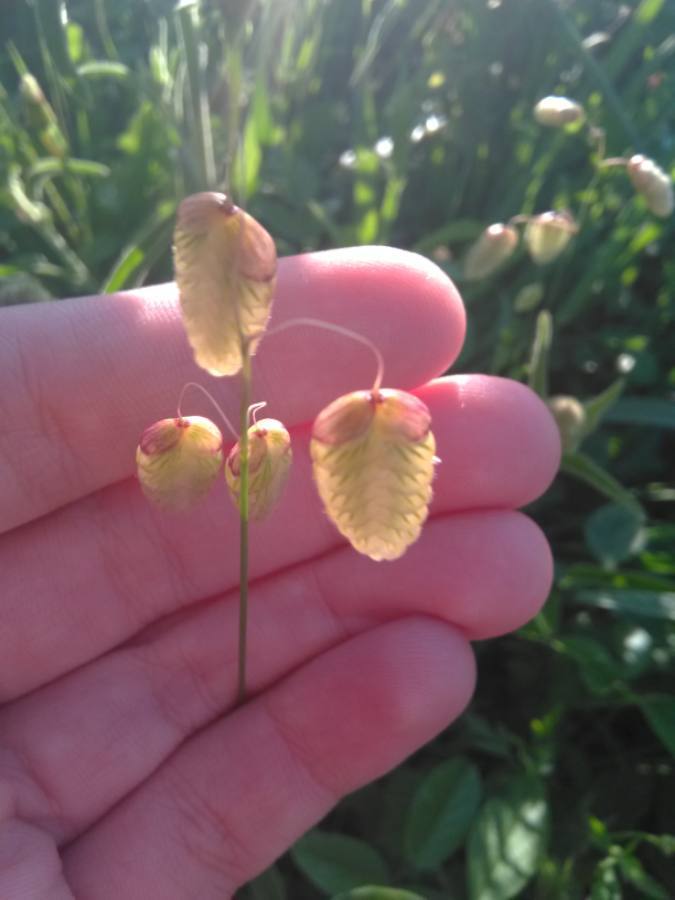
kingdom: Plantae
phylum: Tracheophyta
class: Liliopsida
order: Poales
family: Poaceae
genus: Briza
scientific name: Briza maxima
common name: Big quakinggrass
